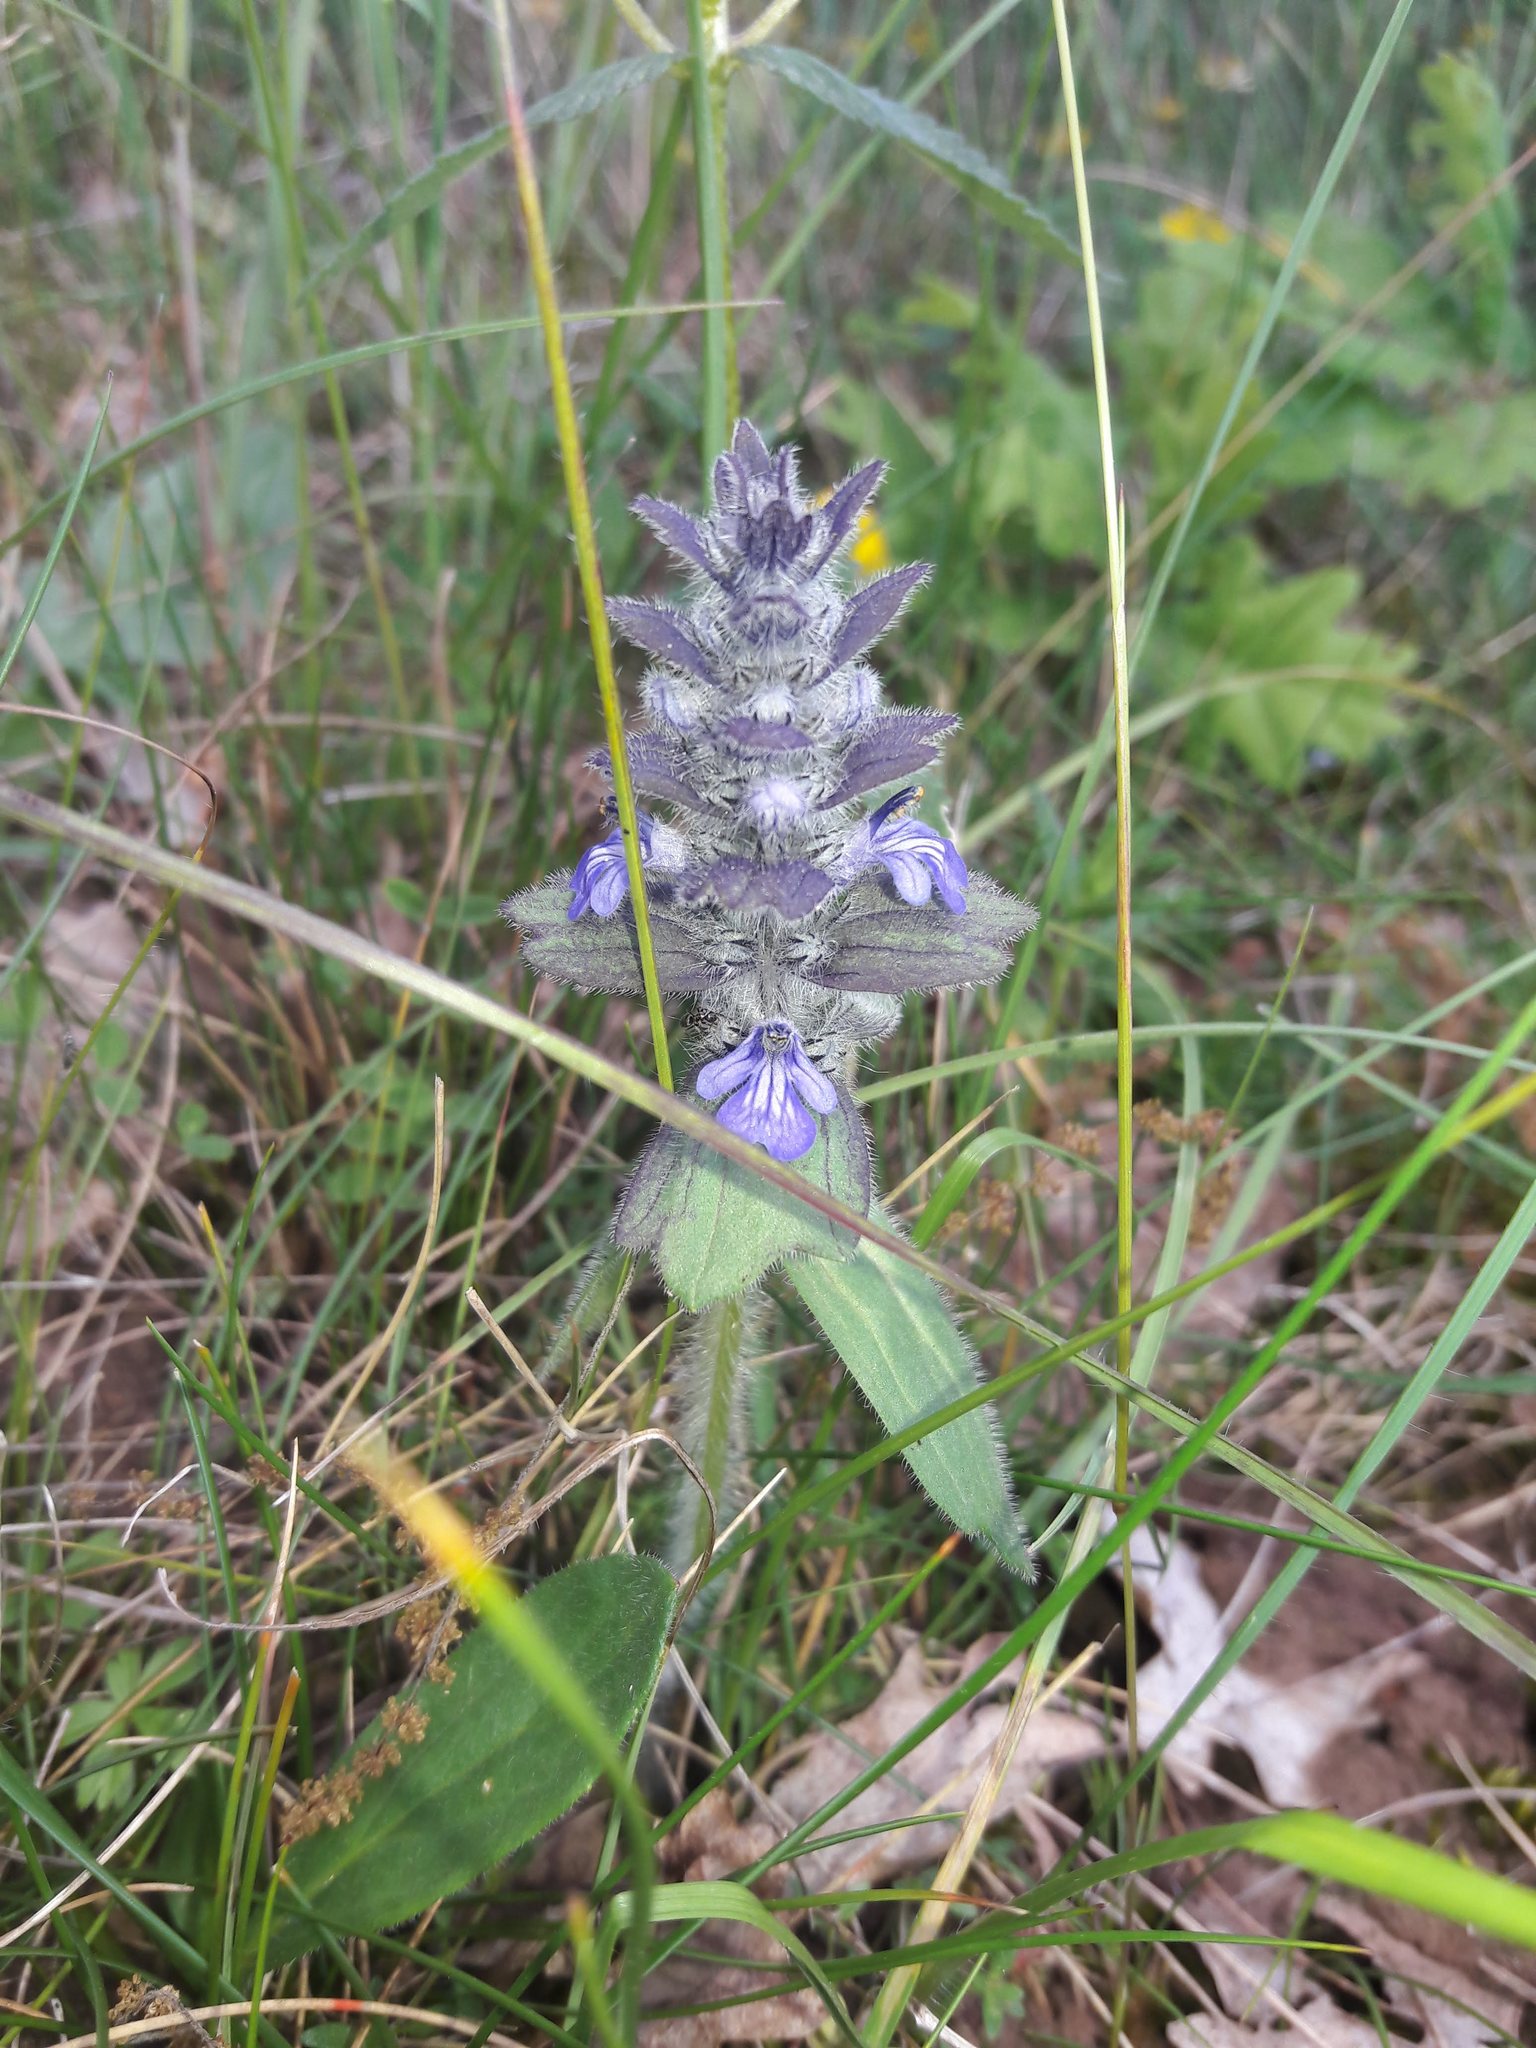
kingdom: Plantae
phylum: Tracheophyta
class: Magnoliopsida
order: Lamiales
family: Lamiaceae
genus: Ajuga
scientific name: Ajuga genevensis
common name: Blue bugle
